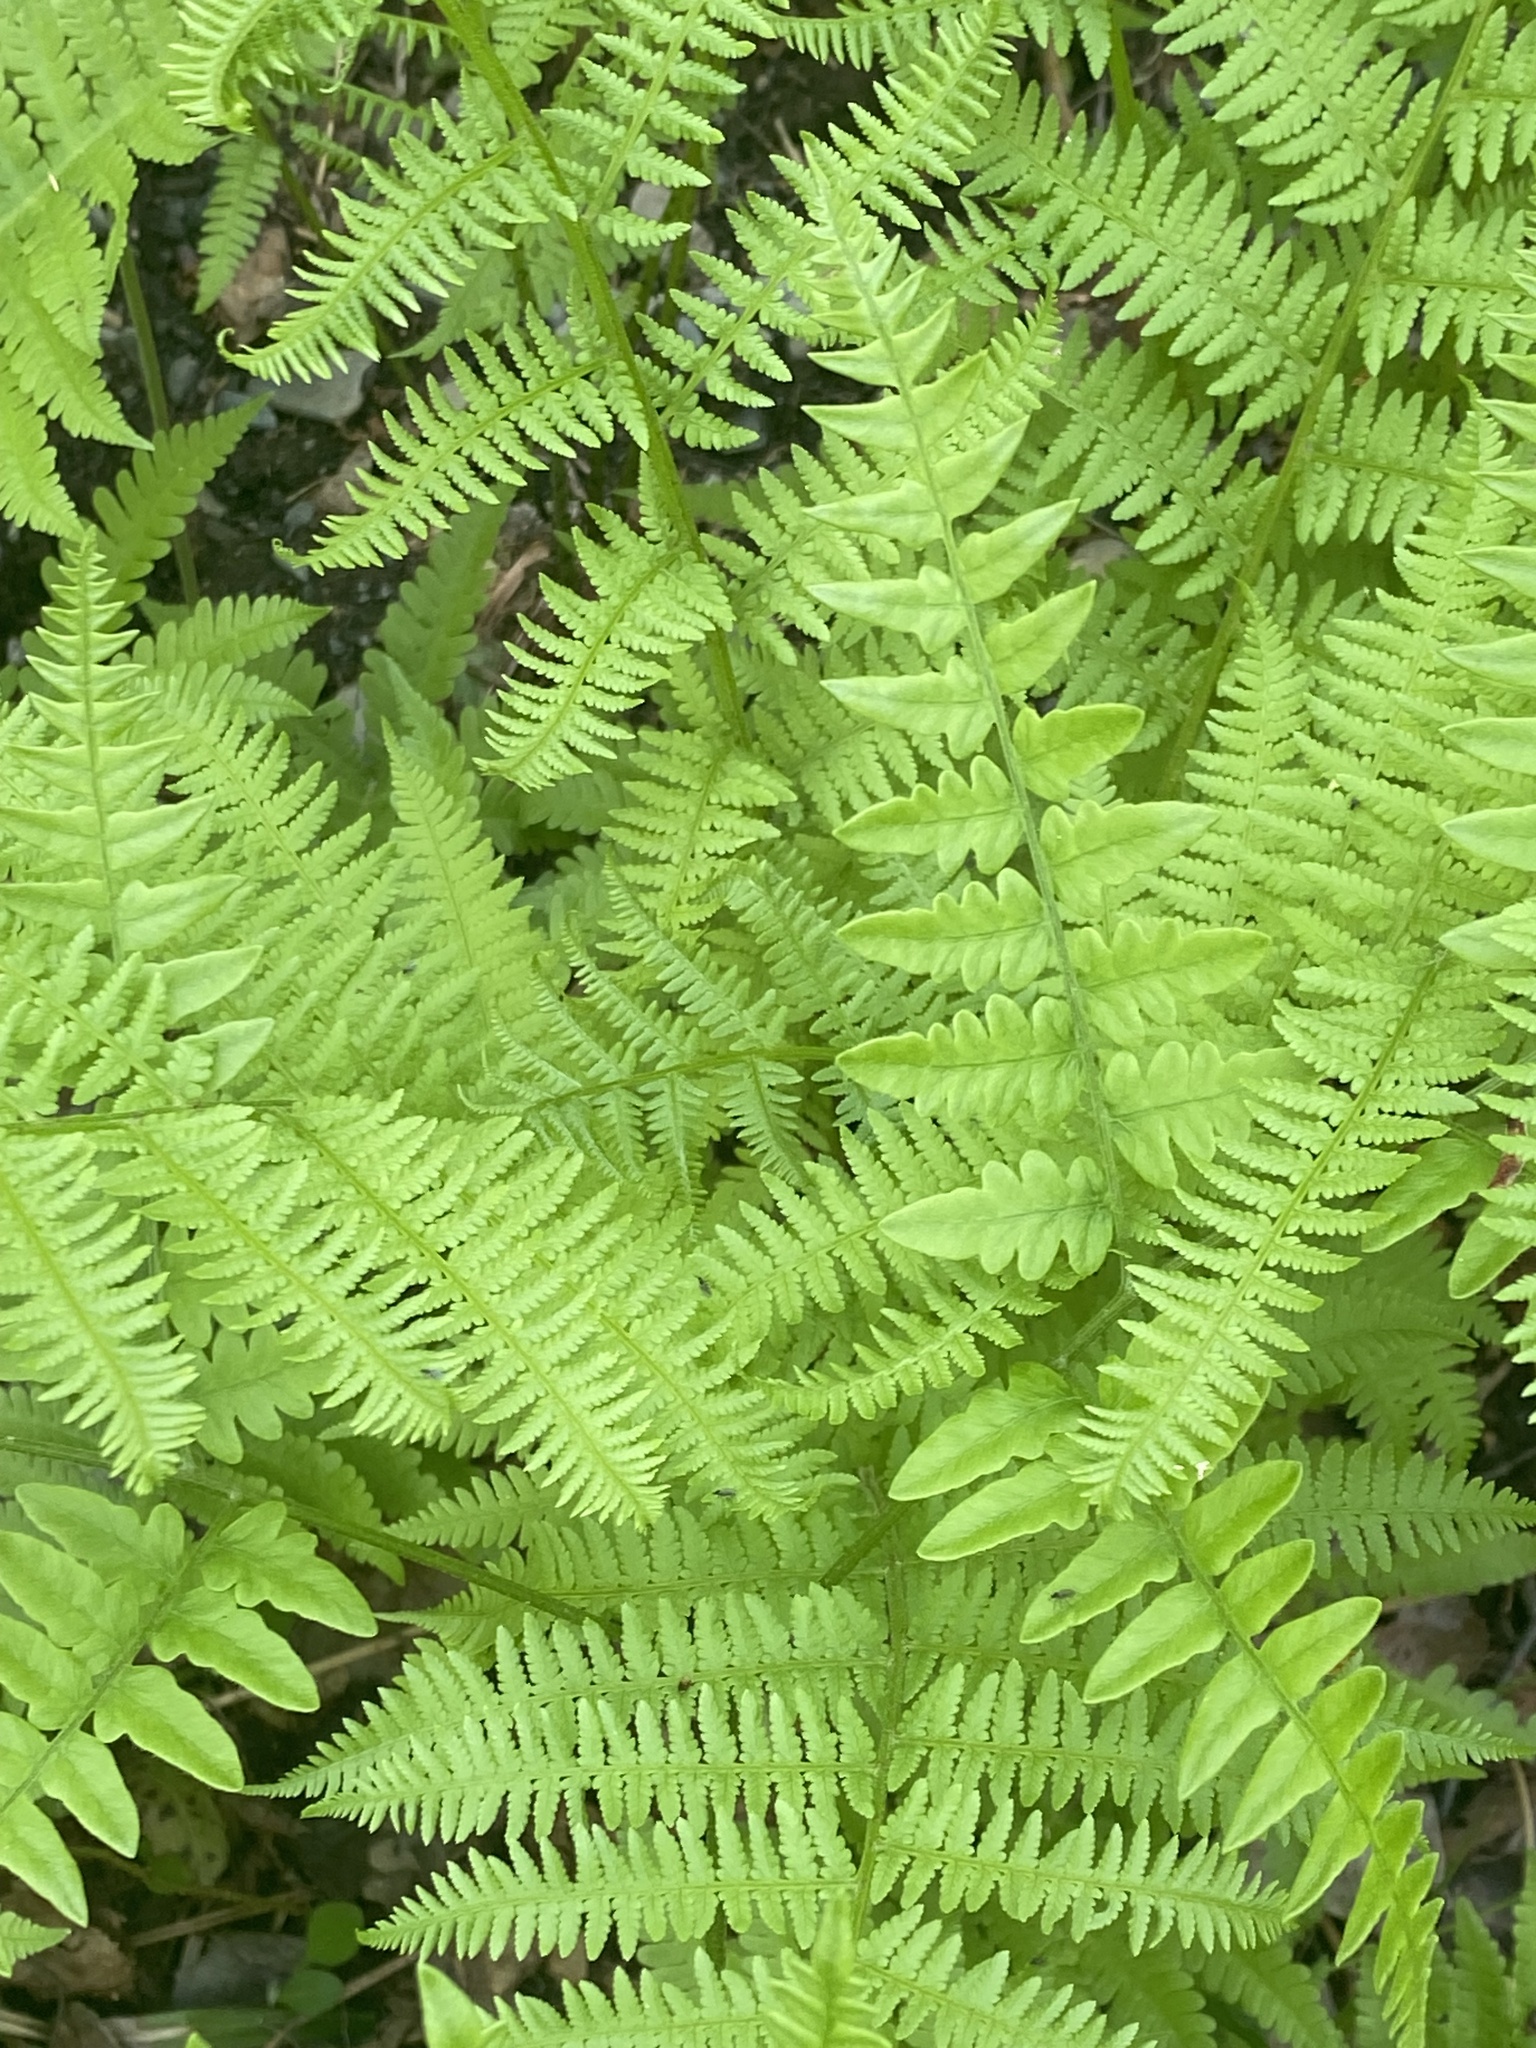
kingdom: Plantae
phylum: Tracheophyta
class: Polypodiopsida
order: Polypodiales
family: Dennstaedtiaceae
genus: Pteridium
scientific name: Pteridium aquilinum
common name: Bracken
